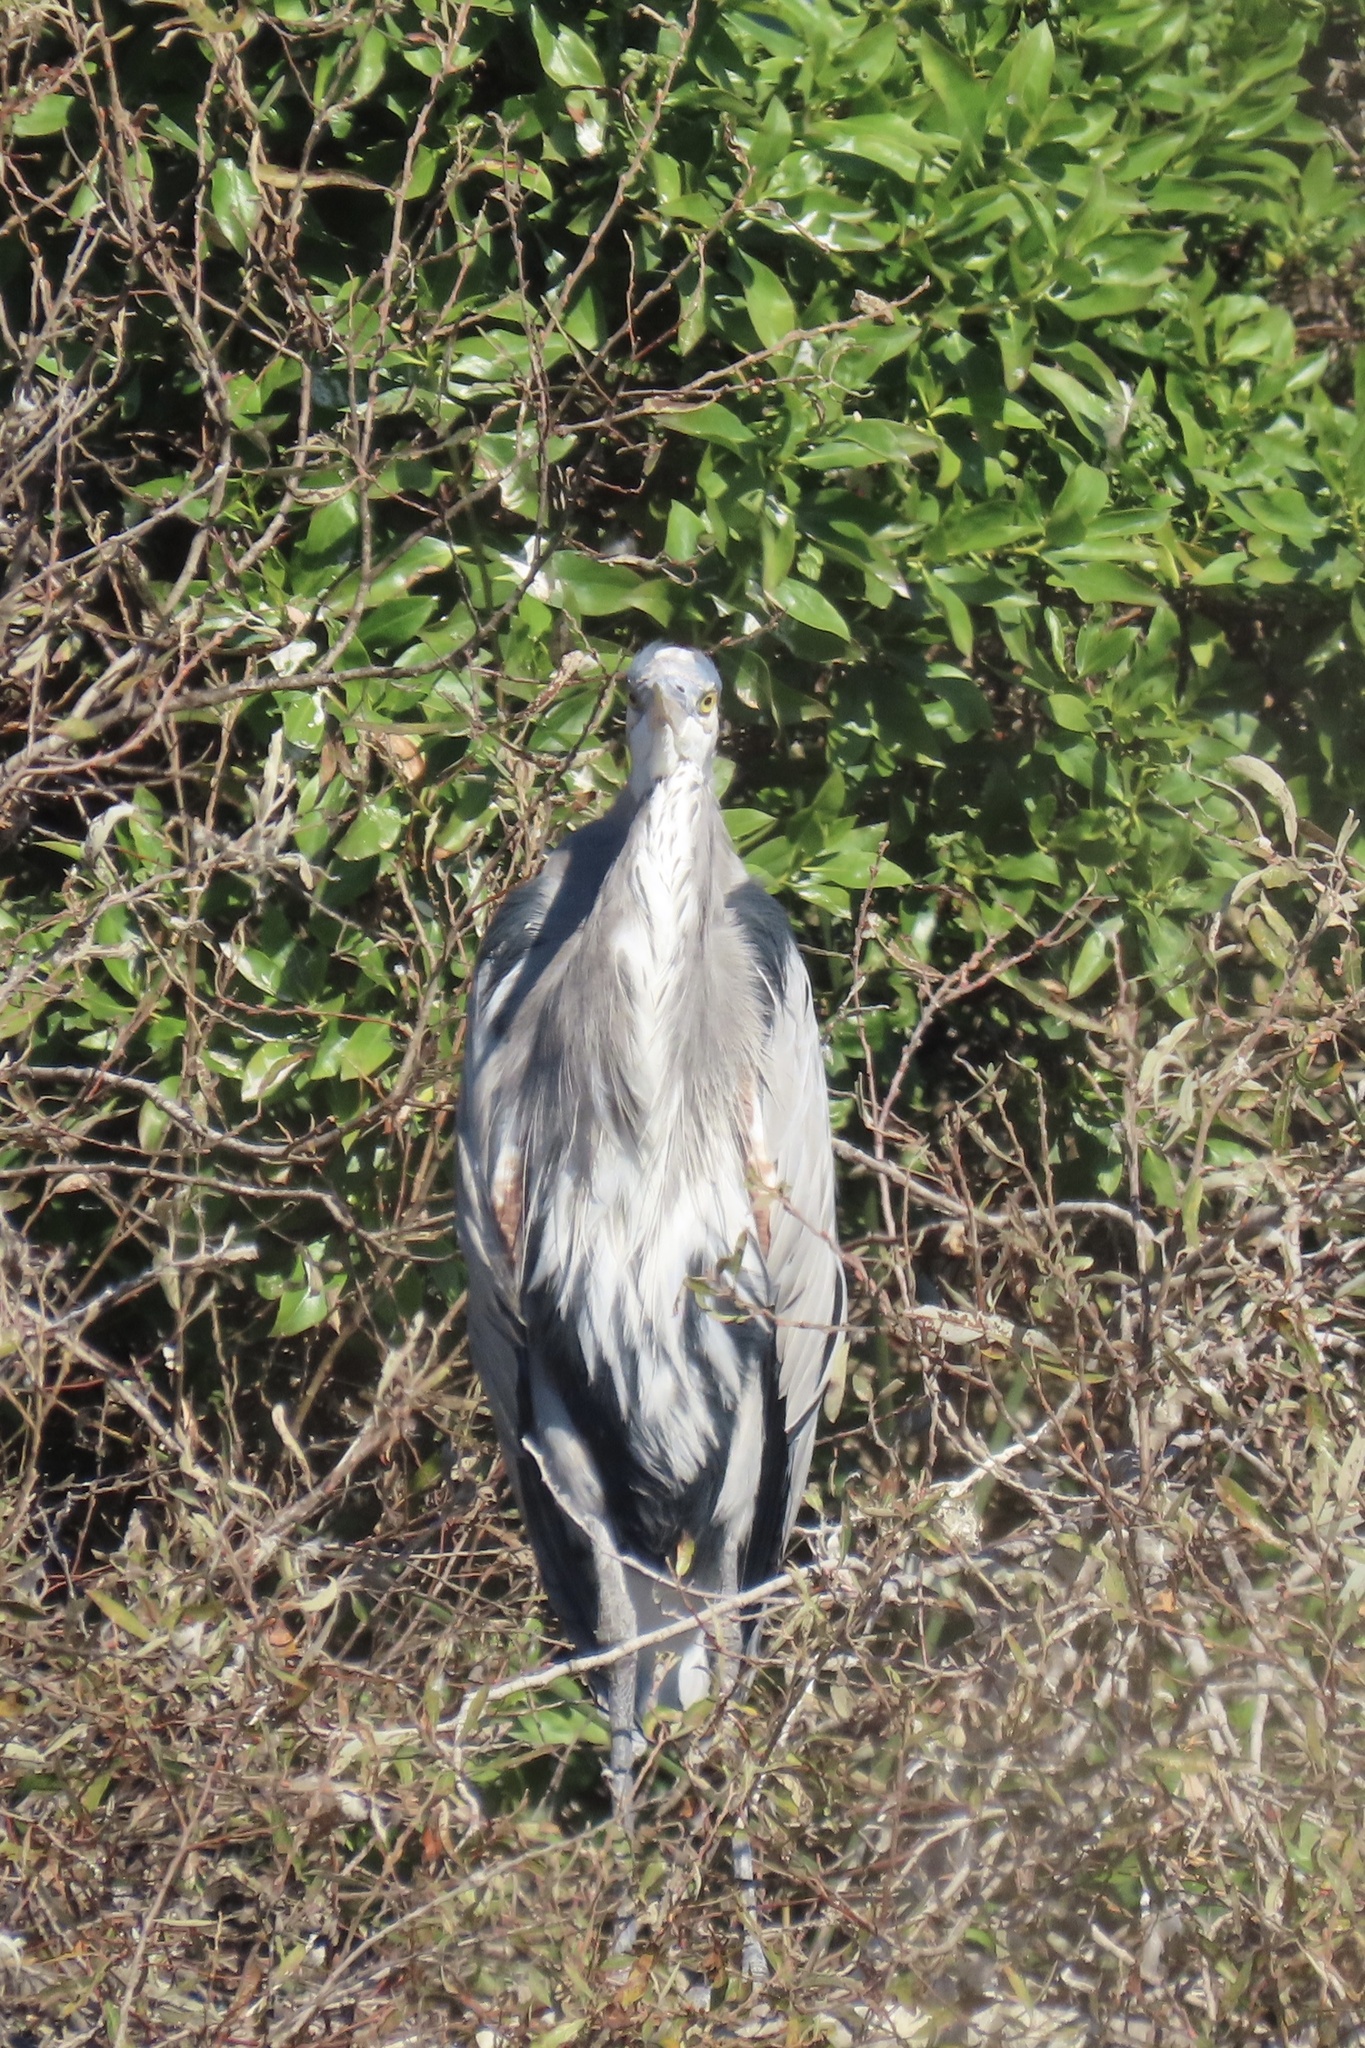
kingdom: Animalia
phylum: Chordata
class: Aves
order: Pelecaniformes
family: Ardeidae
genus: Ardea
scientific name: Ardea herodias
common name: Great blue heron
